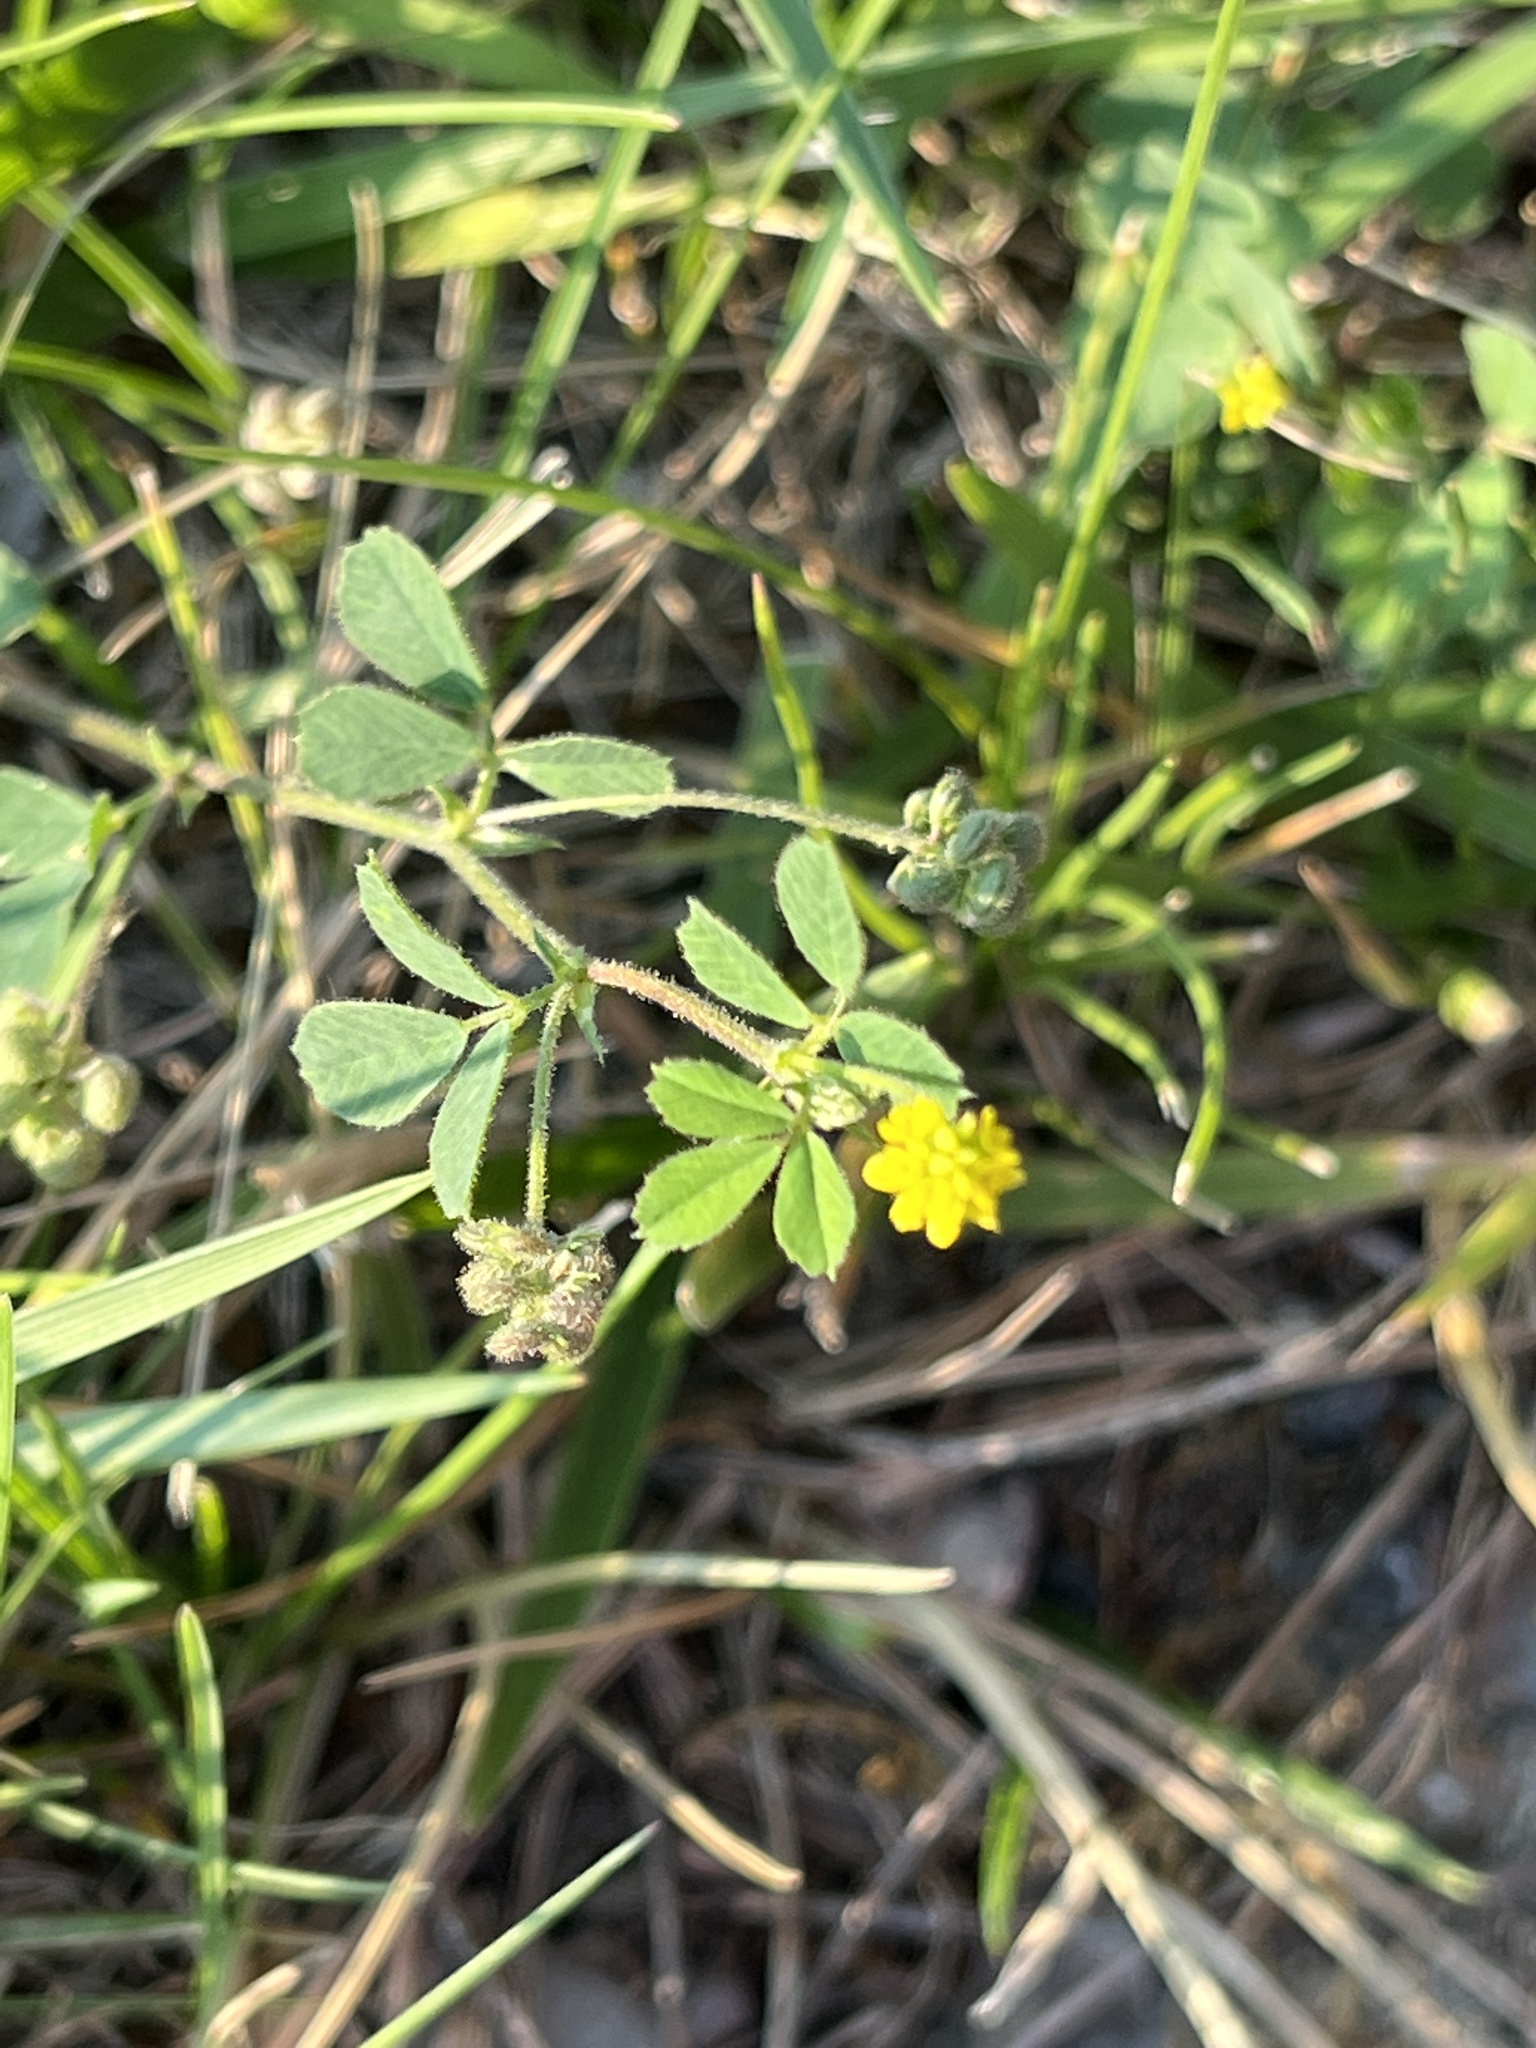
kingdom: Plantae
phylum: Tracheophyta
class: Magnoliopsida
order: Fabales
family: Fabaceae
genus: Medicago
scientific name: Medicago lupulina
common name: Black medick
